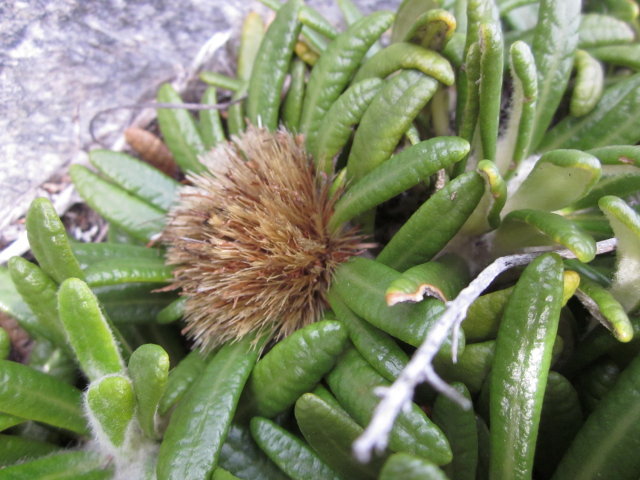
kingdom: Plantae
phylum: Tracheophyta
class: Magnoliopsida
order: Asterales
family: Asteraceae
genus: Oldenburgia
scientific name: Oldenburgia paradoxa
